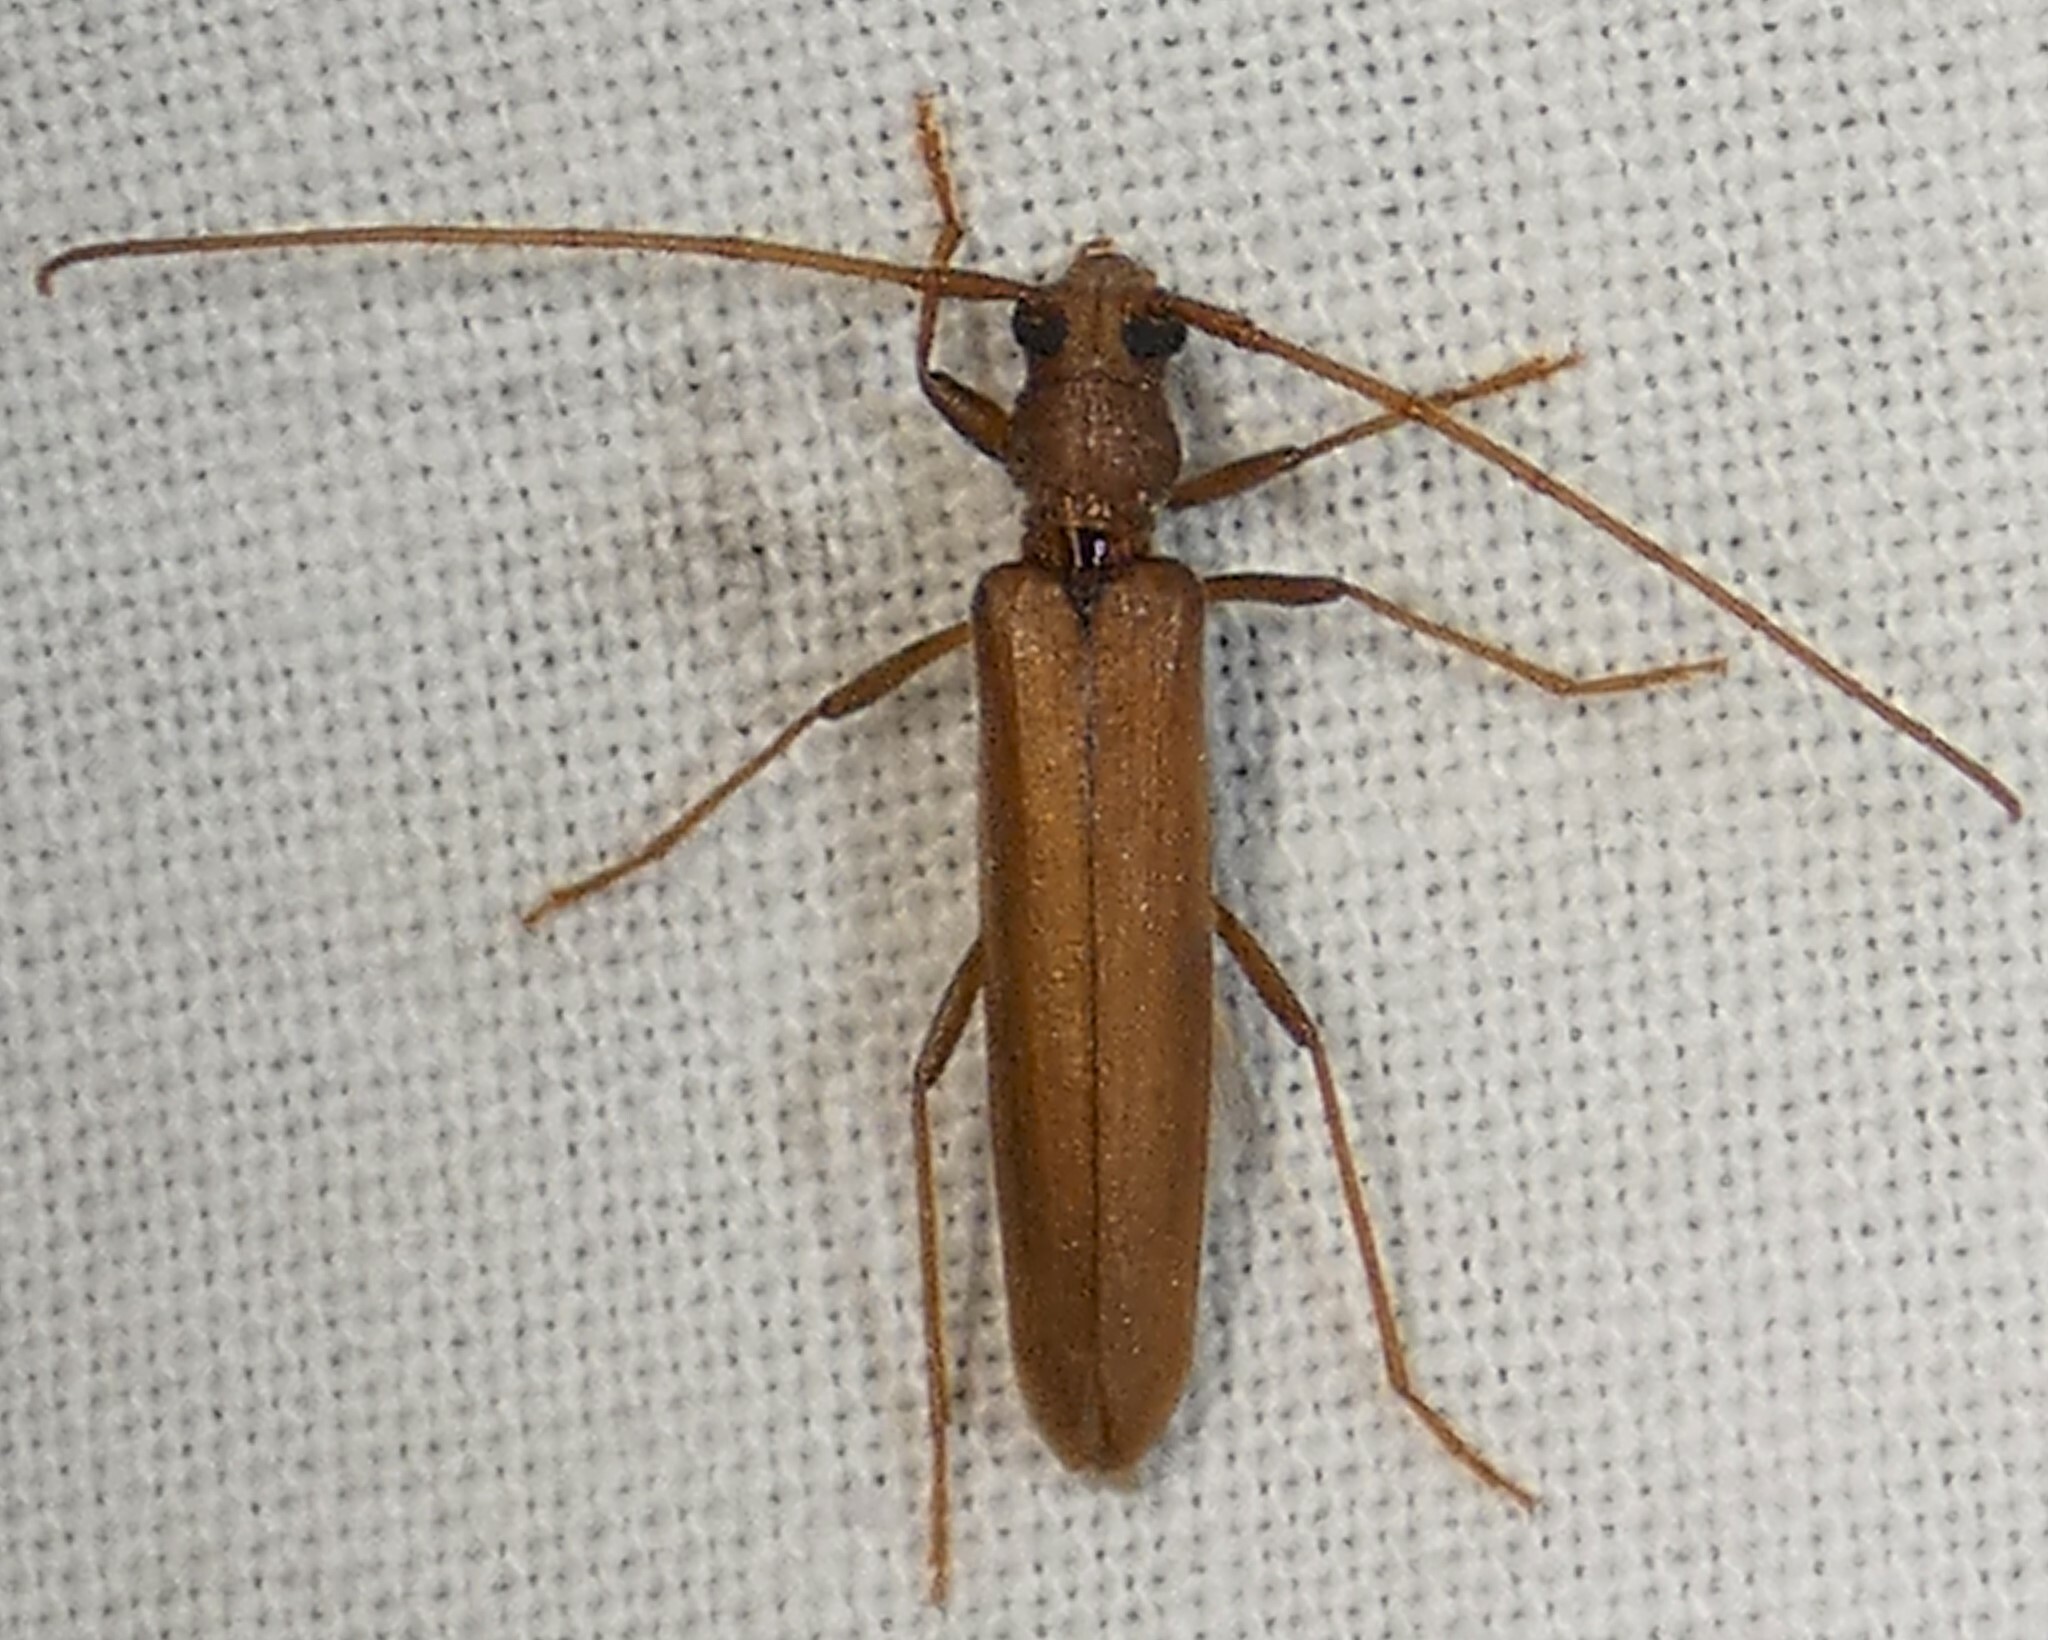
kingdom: Animalia
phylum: Arthropoda
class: Insecta
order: Coleoptera
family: Cerambycidae
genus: Oeme
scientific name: Oeme rigida
